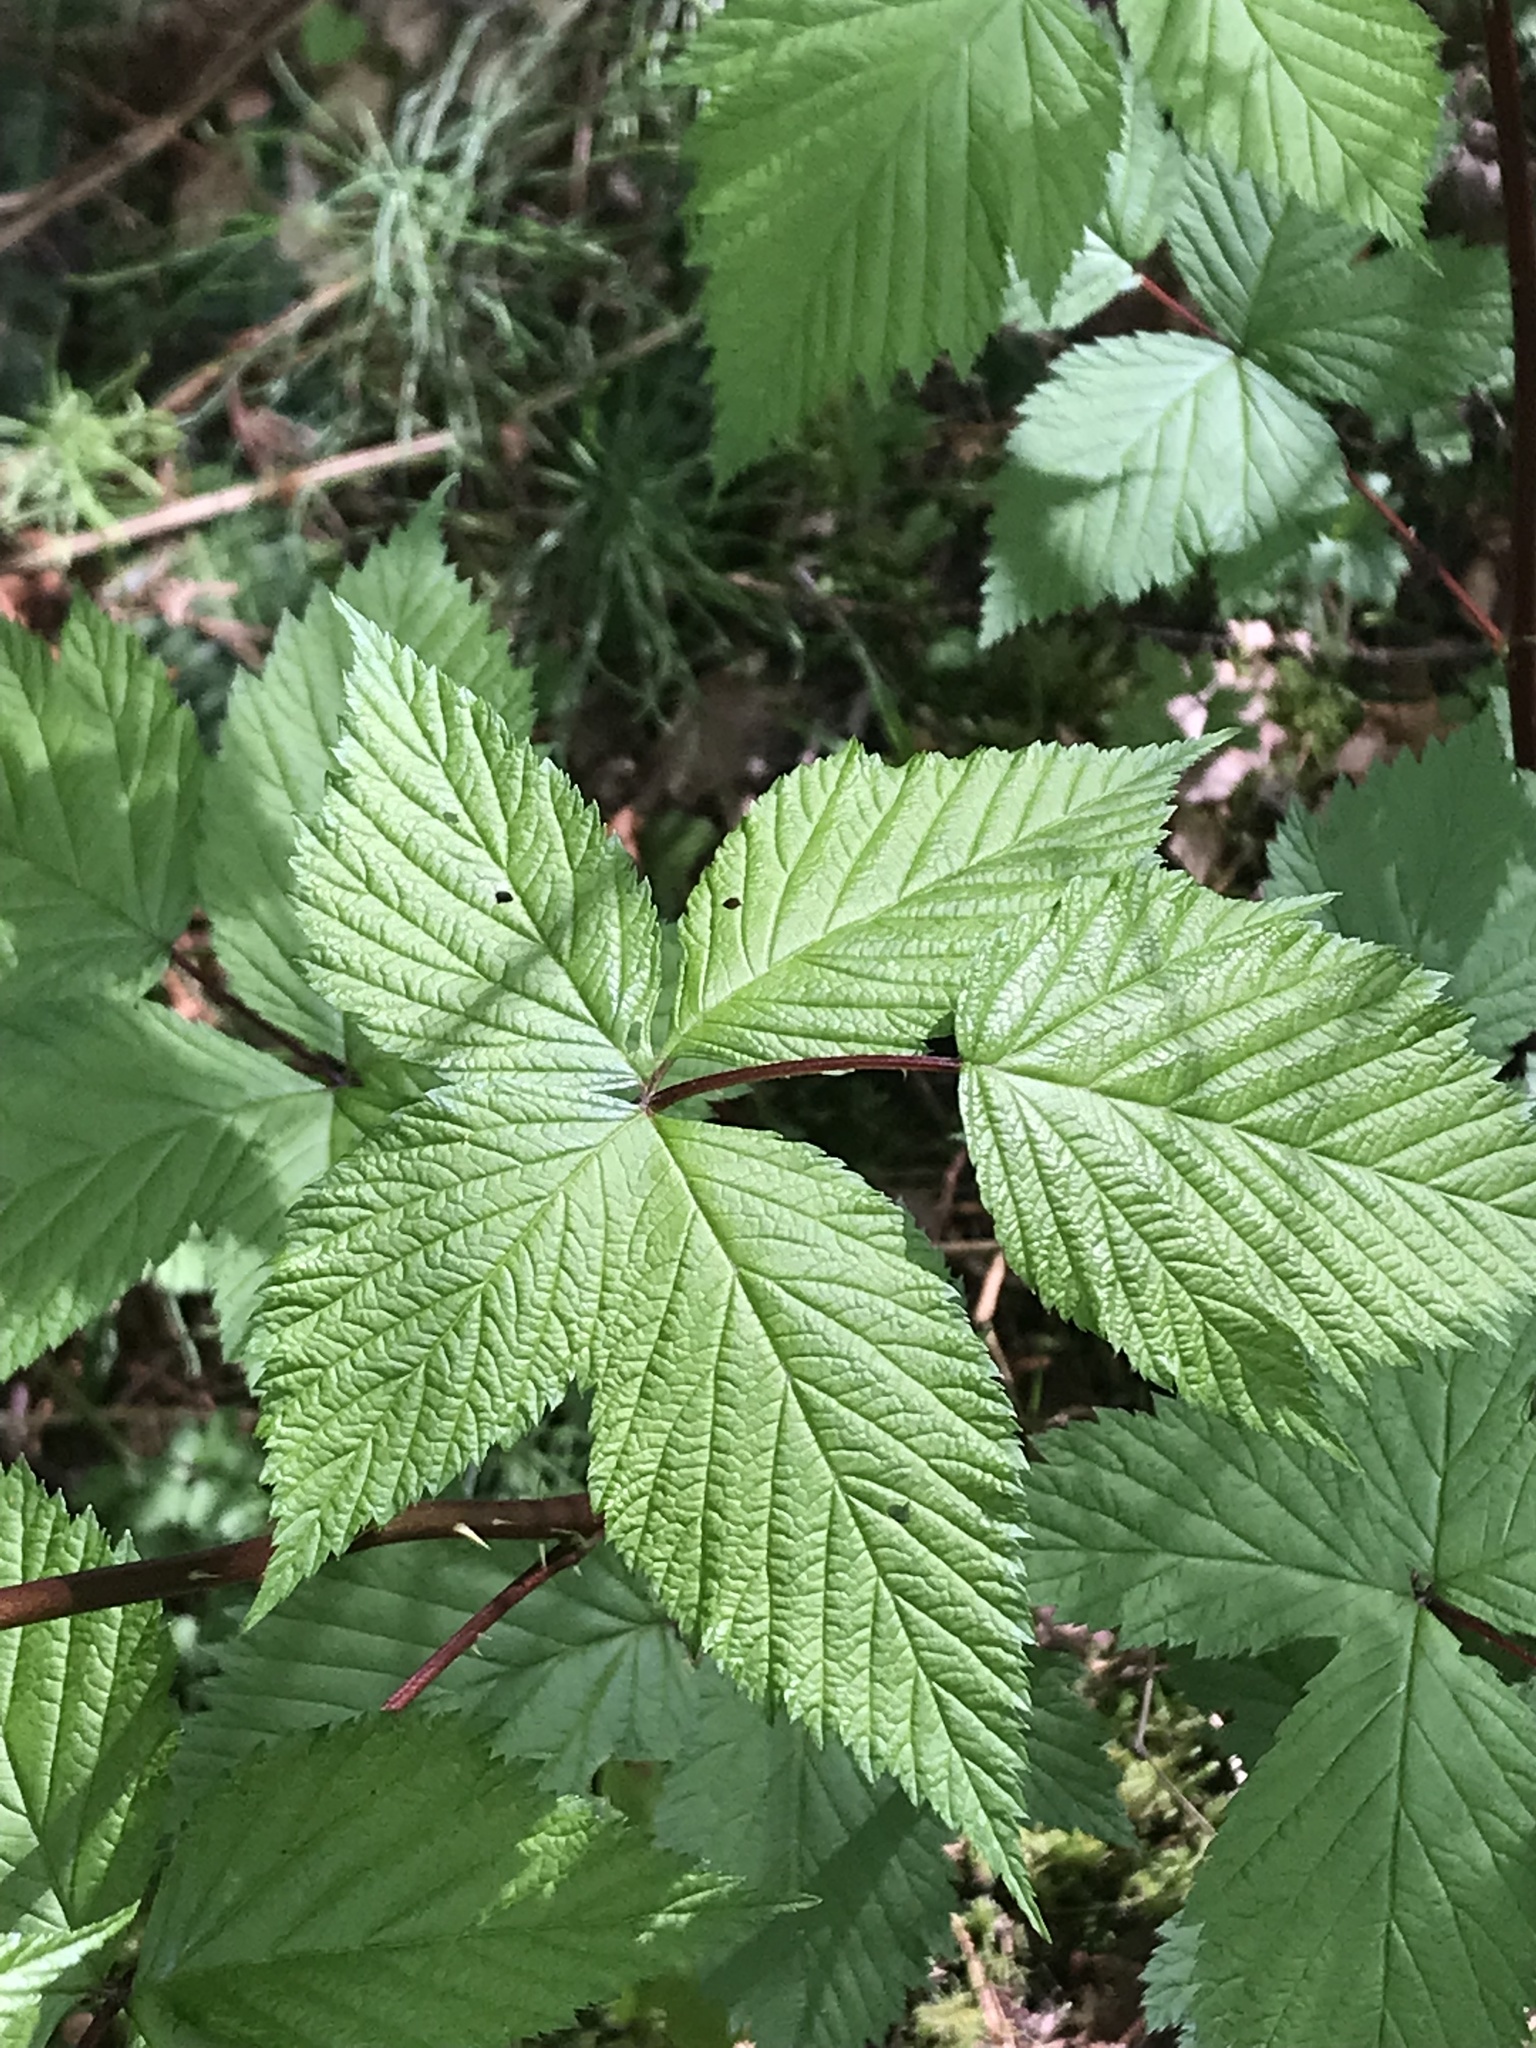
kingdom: Plantae
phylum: Tracheophyta
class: Magnoliopsida
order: Rosales
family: Rosaceae
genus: Rubus
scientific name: Rubus spectabilis
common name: Salmonberry
